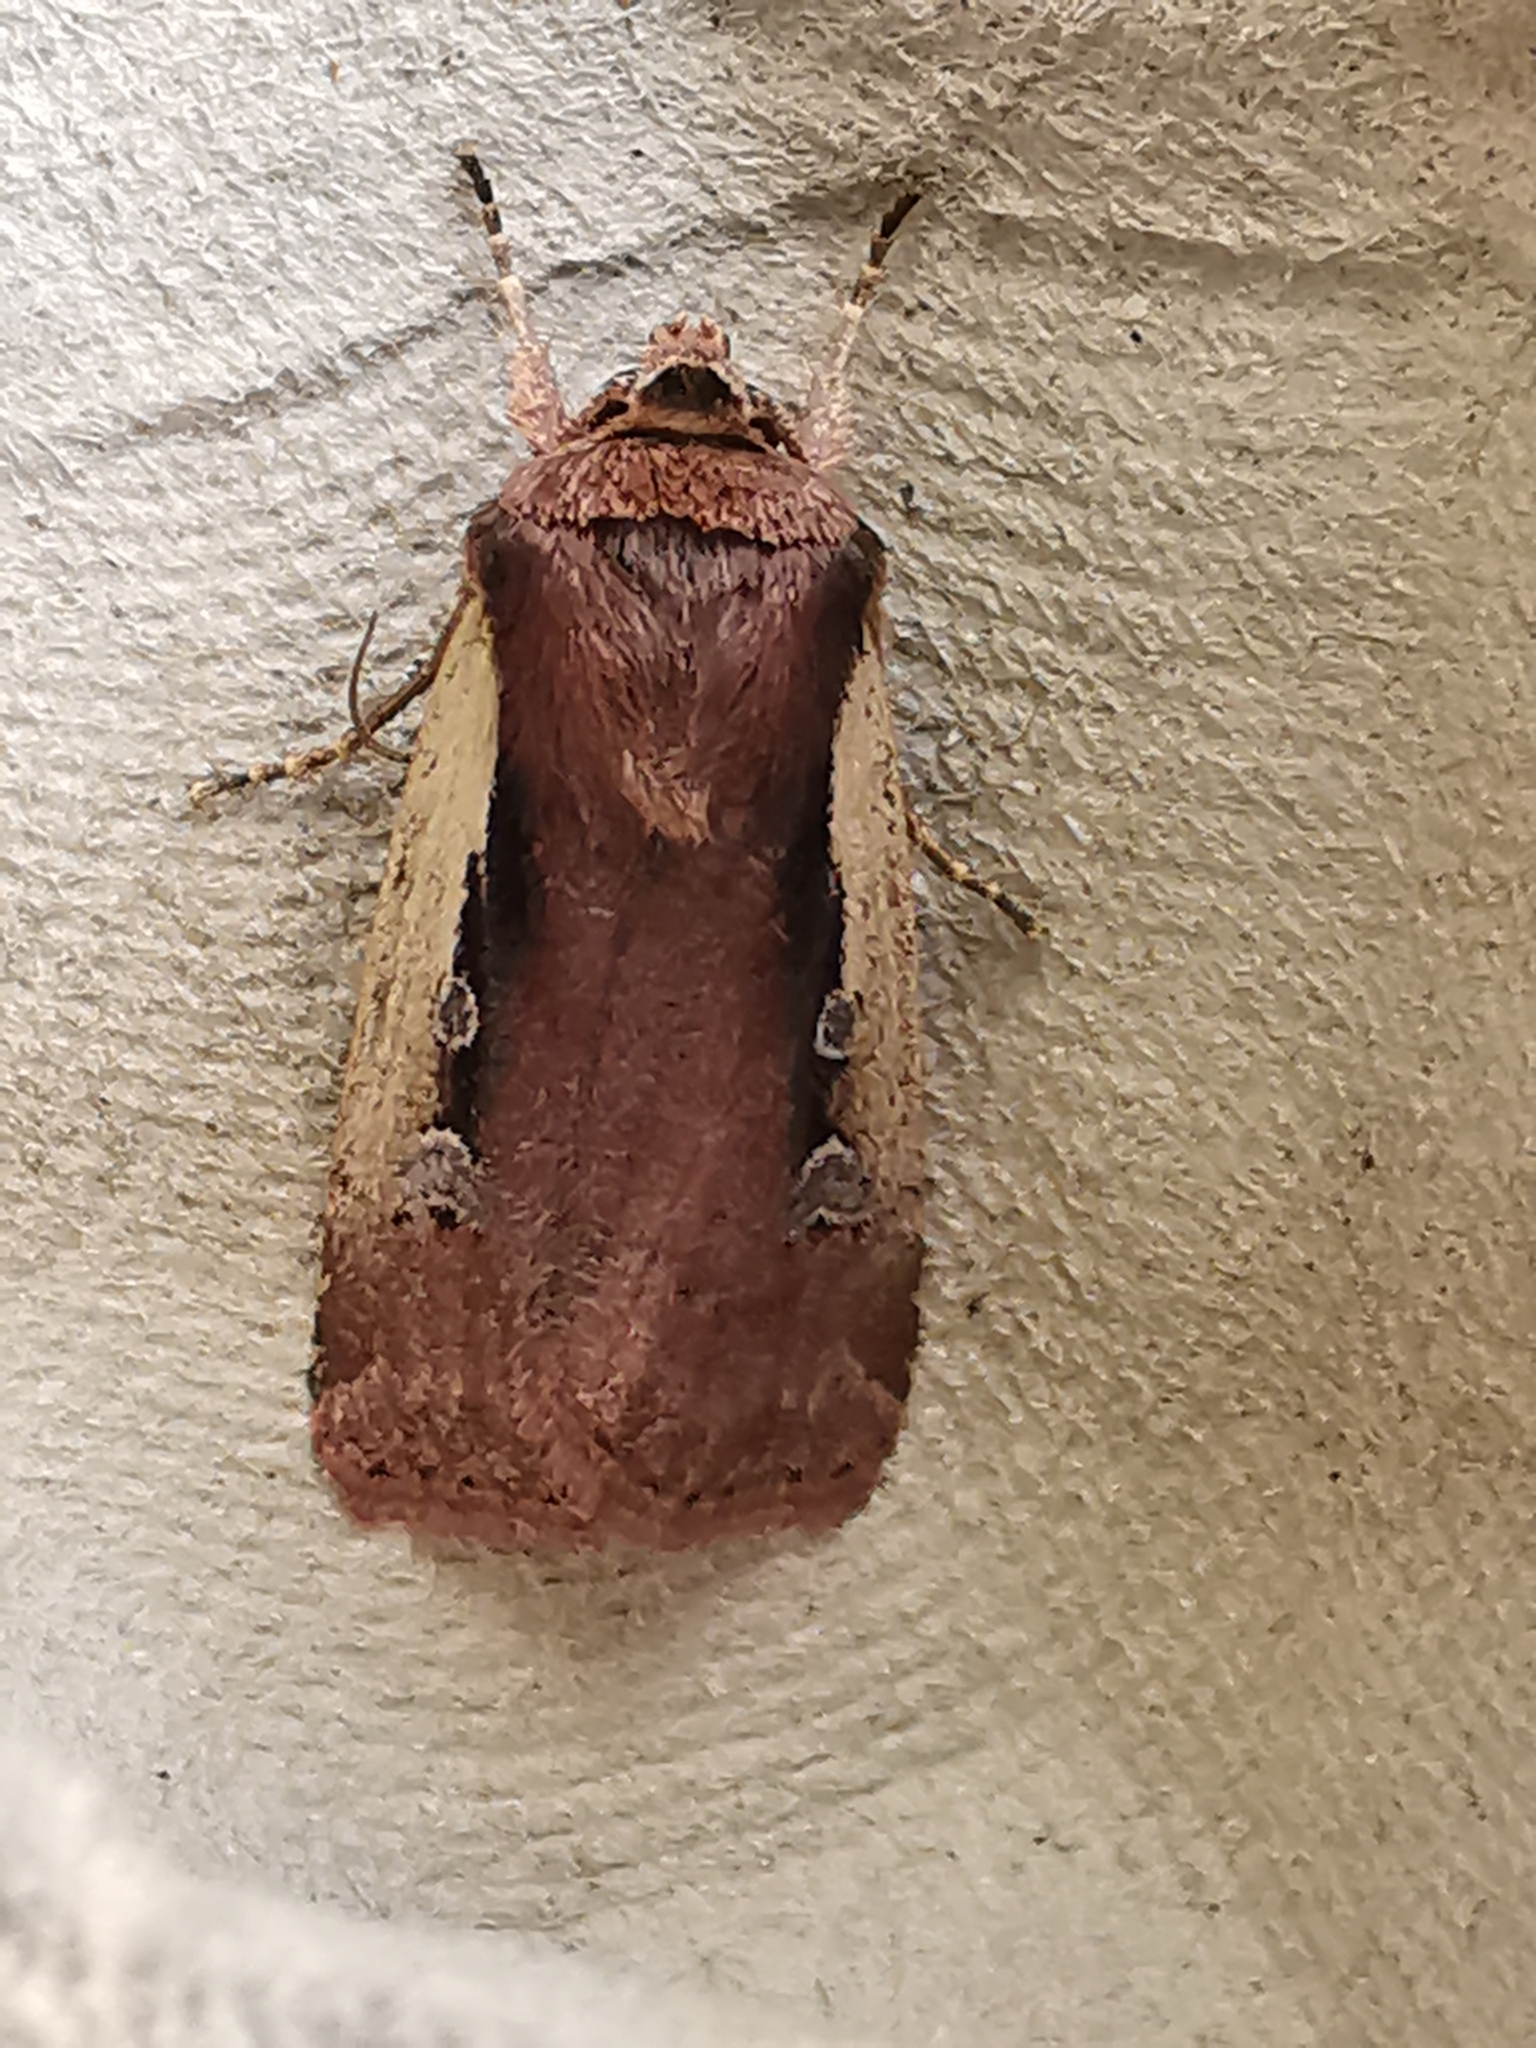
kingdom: Animalia
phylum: Arthropoda
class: Insecta
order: Lepidoptera
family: Noctuidae
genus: Ochropleura
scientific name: Ochropleura plecta
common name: Flame shoulder
